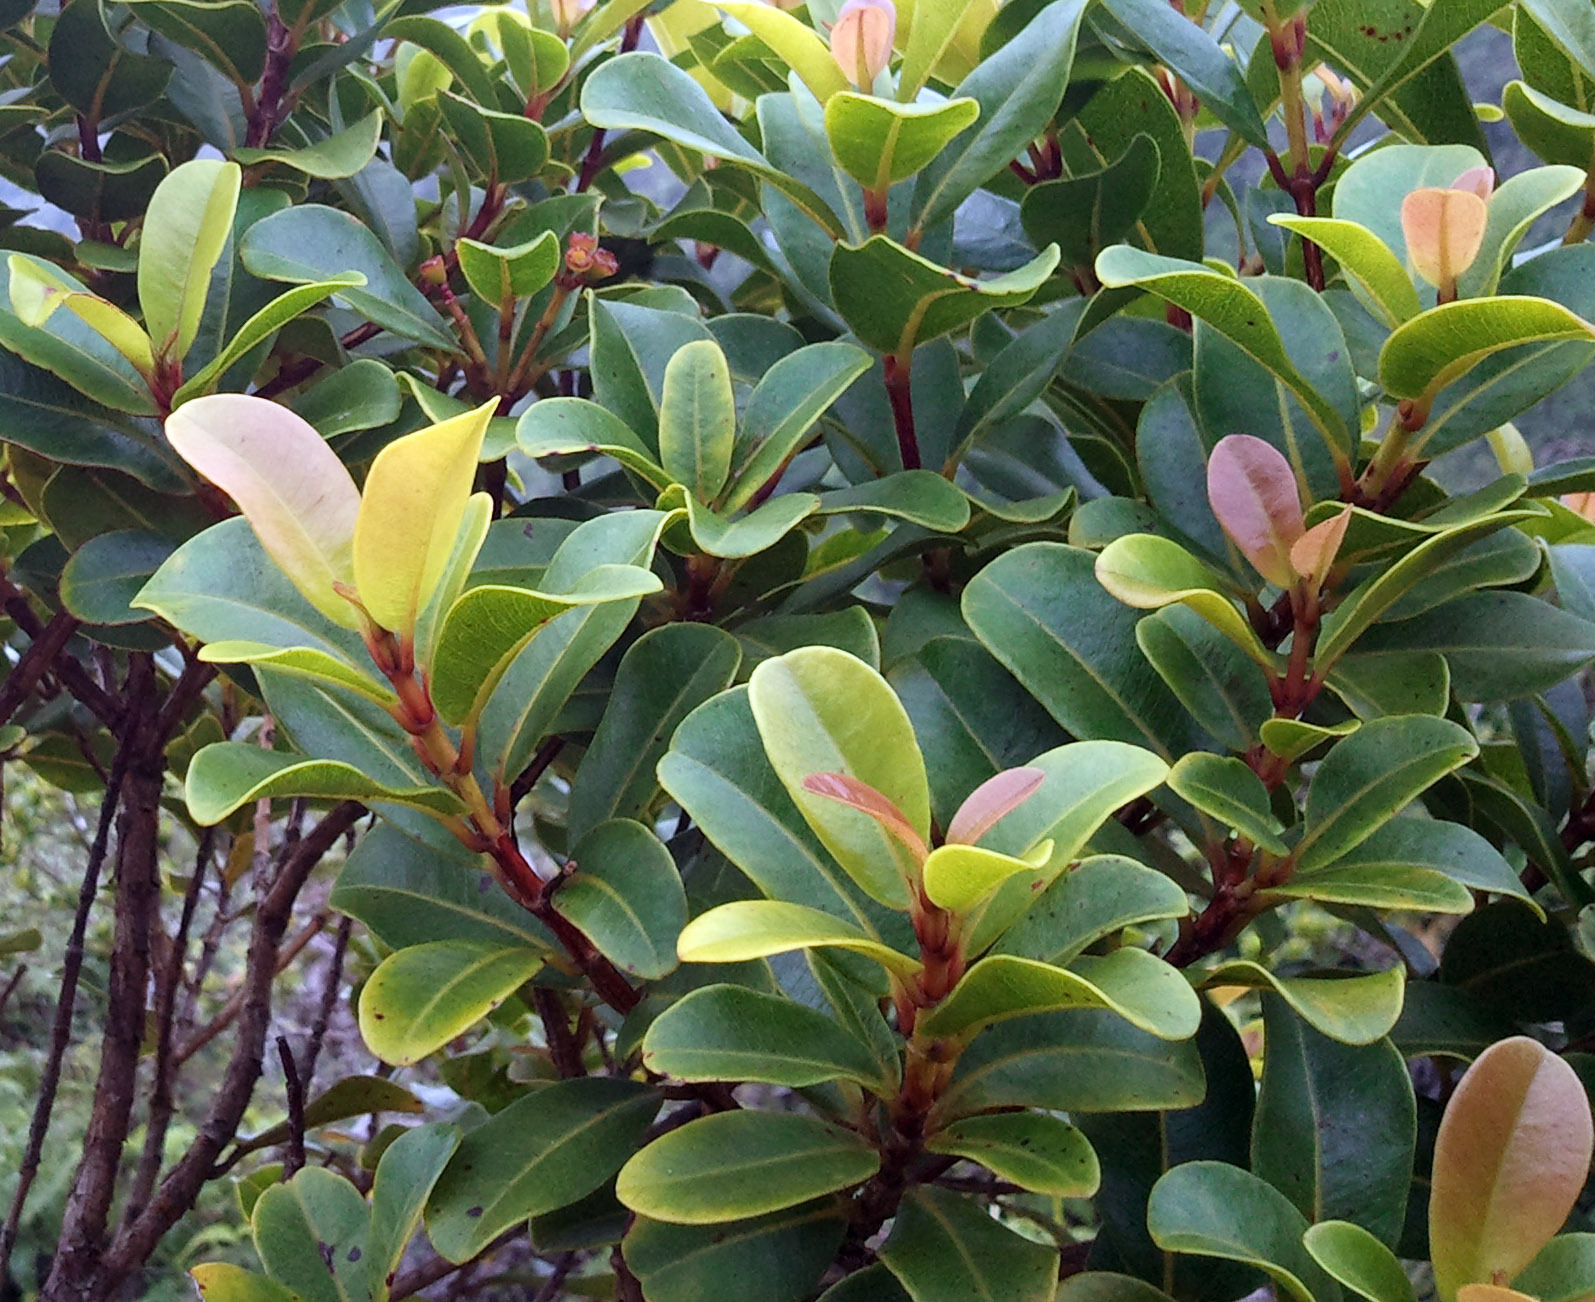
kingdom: Plantae
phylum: Tracheophyta
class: Magnoliopsida
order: Myrtales
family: Myrtaceae
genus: Syzygium
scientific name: Syzygium sandwicense
